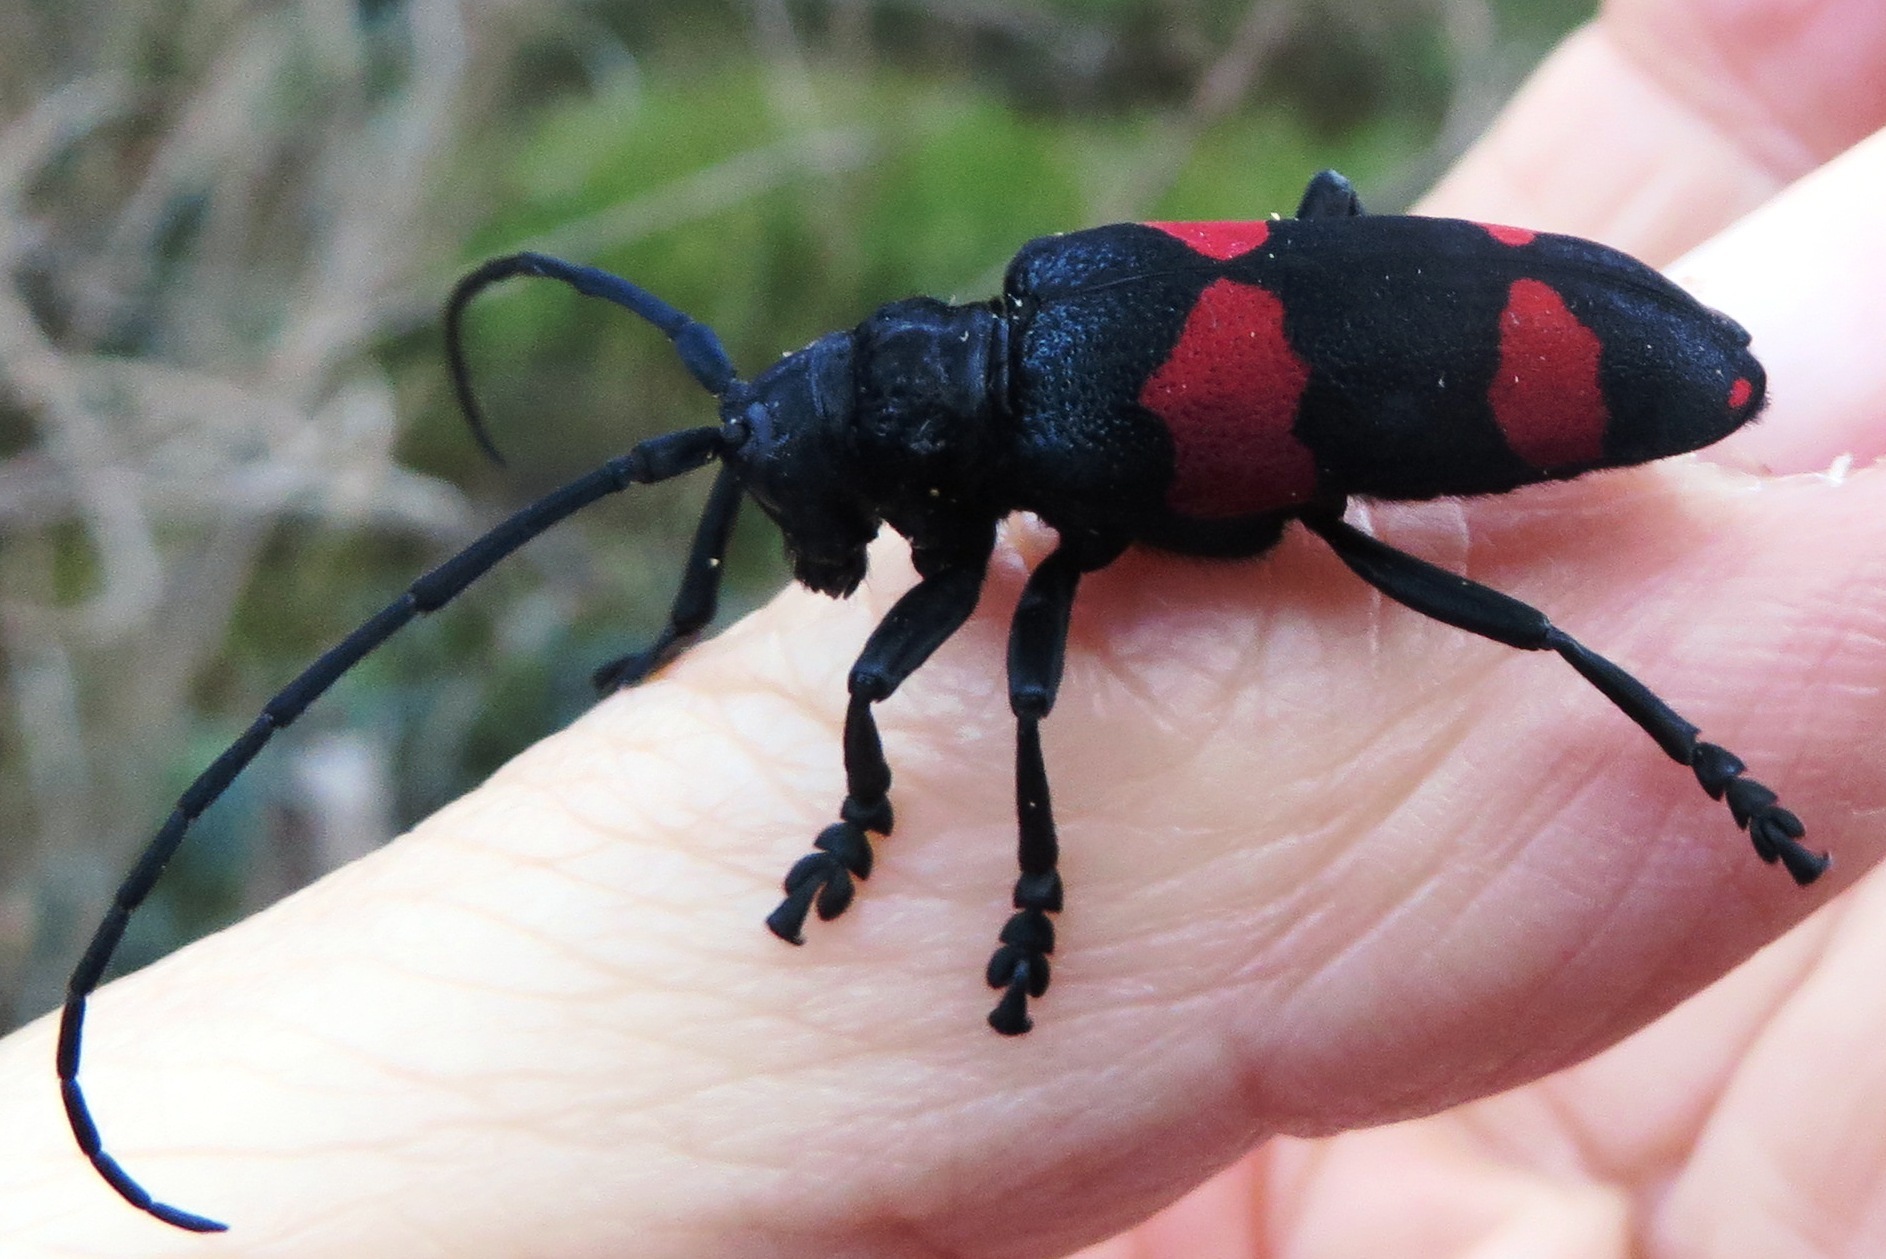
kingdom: Animalia
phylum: Arthropoda
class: Insecta
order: Coleoptera
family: Cerambycidae
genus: Ceroplesis
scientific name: Ceroplesis aethiops
